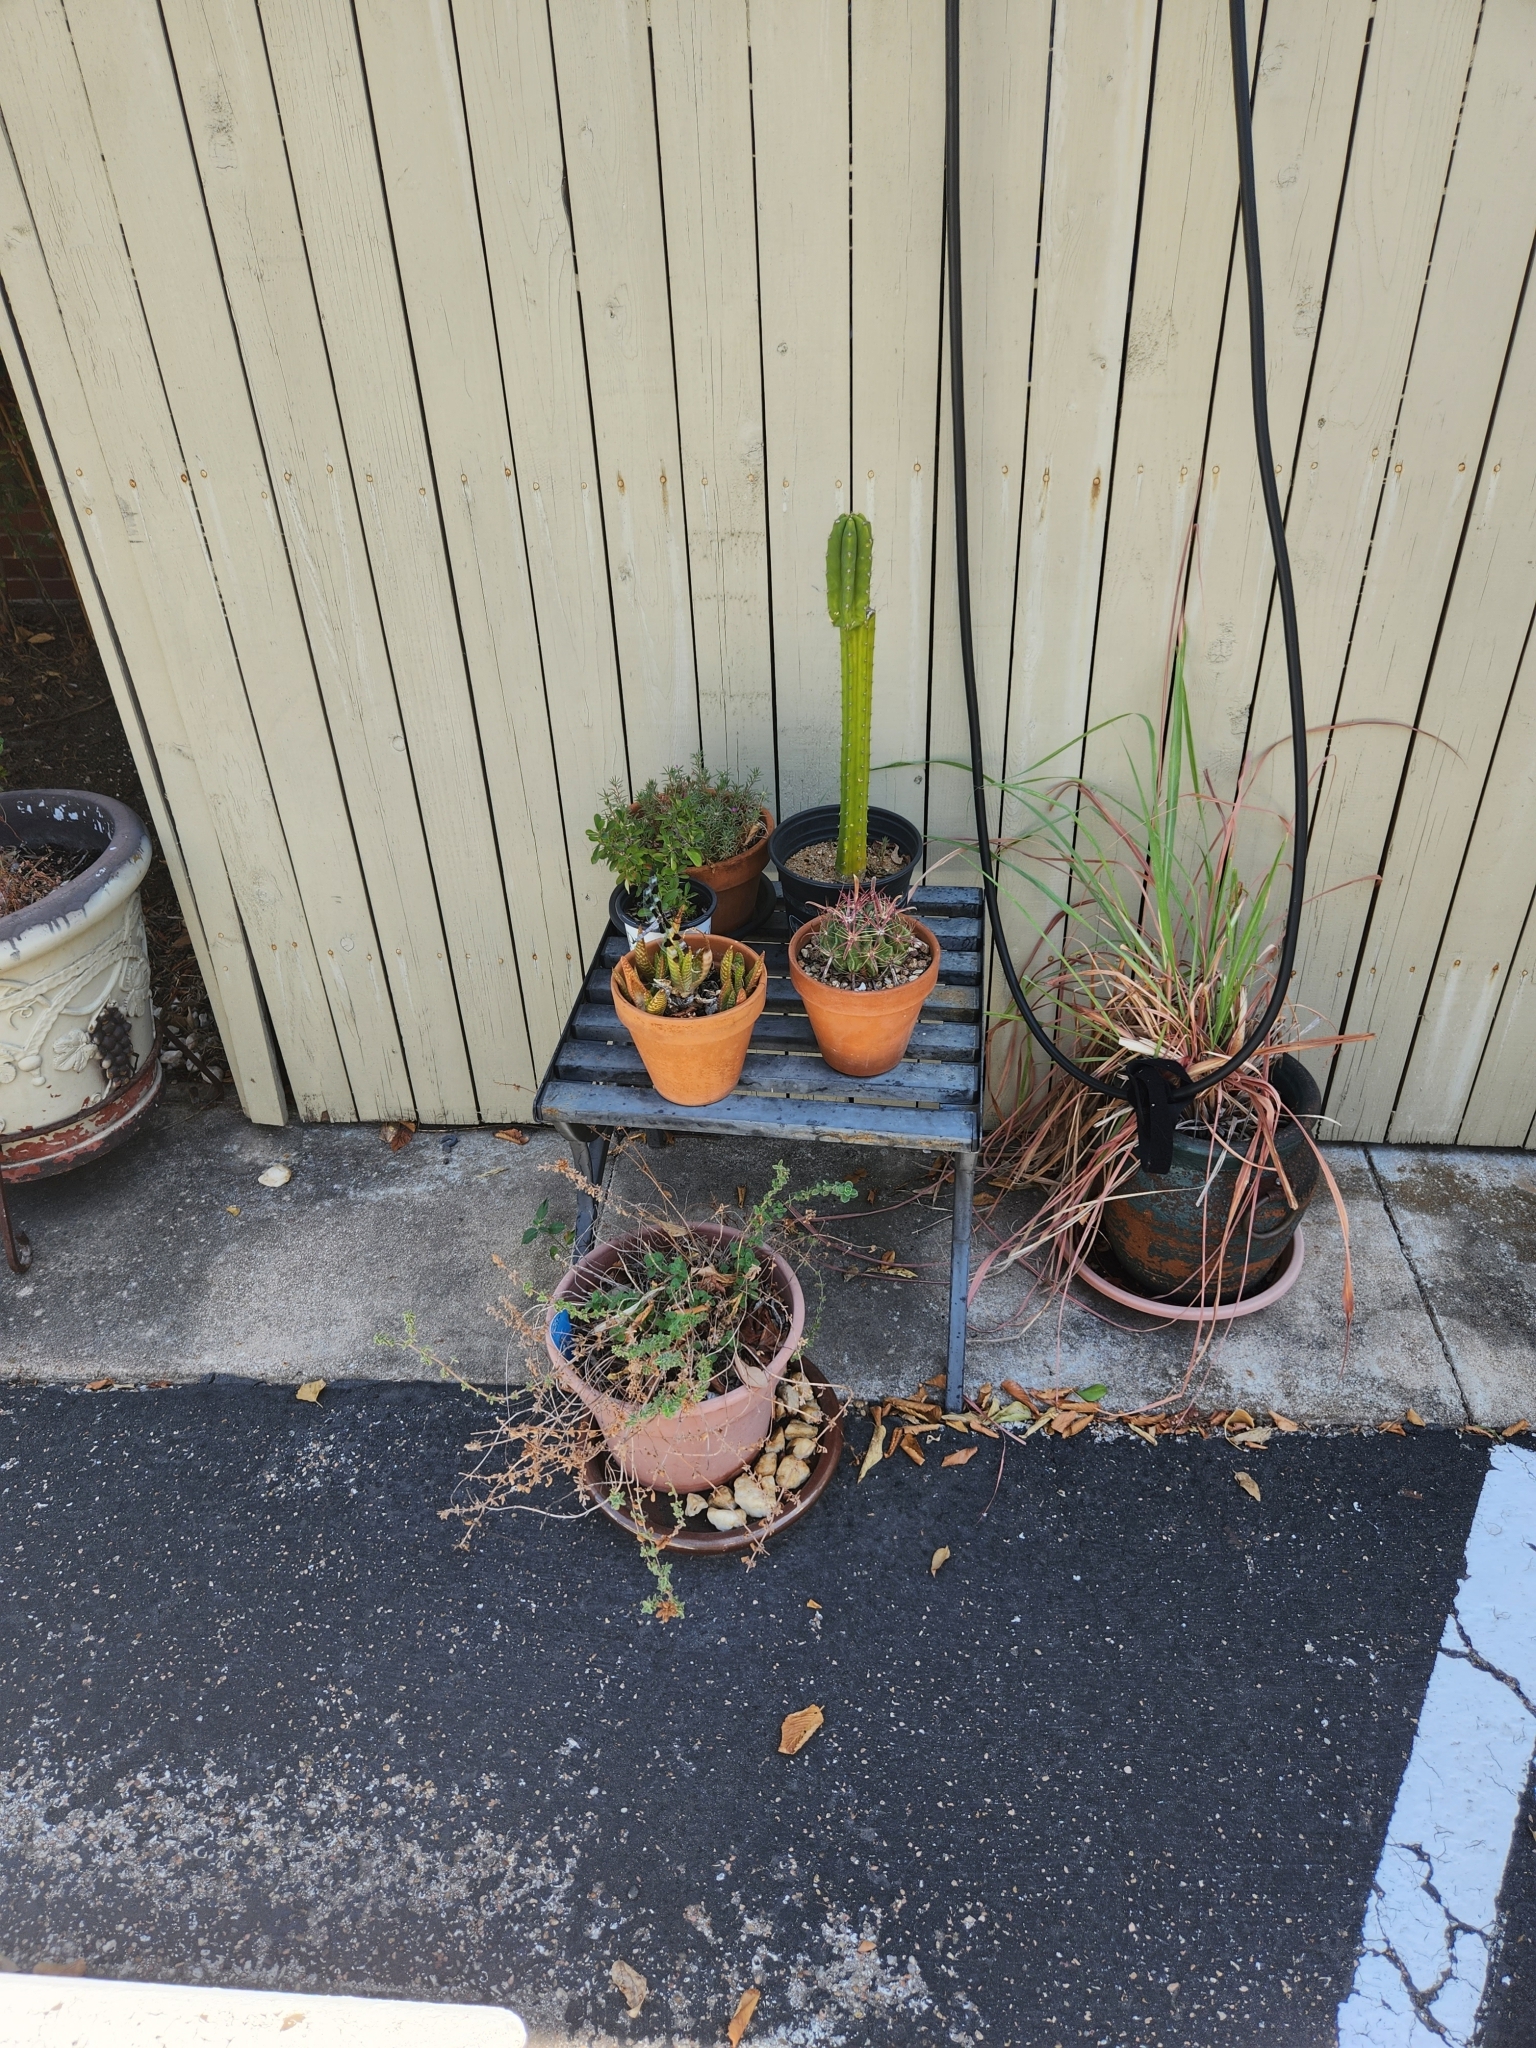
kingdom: Animalia
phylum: Arthropoda
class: Insecta
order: Odonata
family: Libellulidae
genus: Libellula
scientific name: Libellula pulchella
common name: Twelve-spotted skimmer
